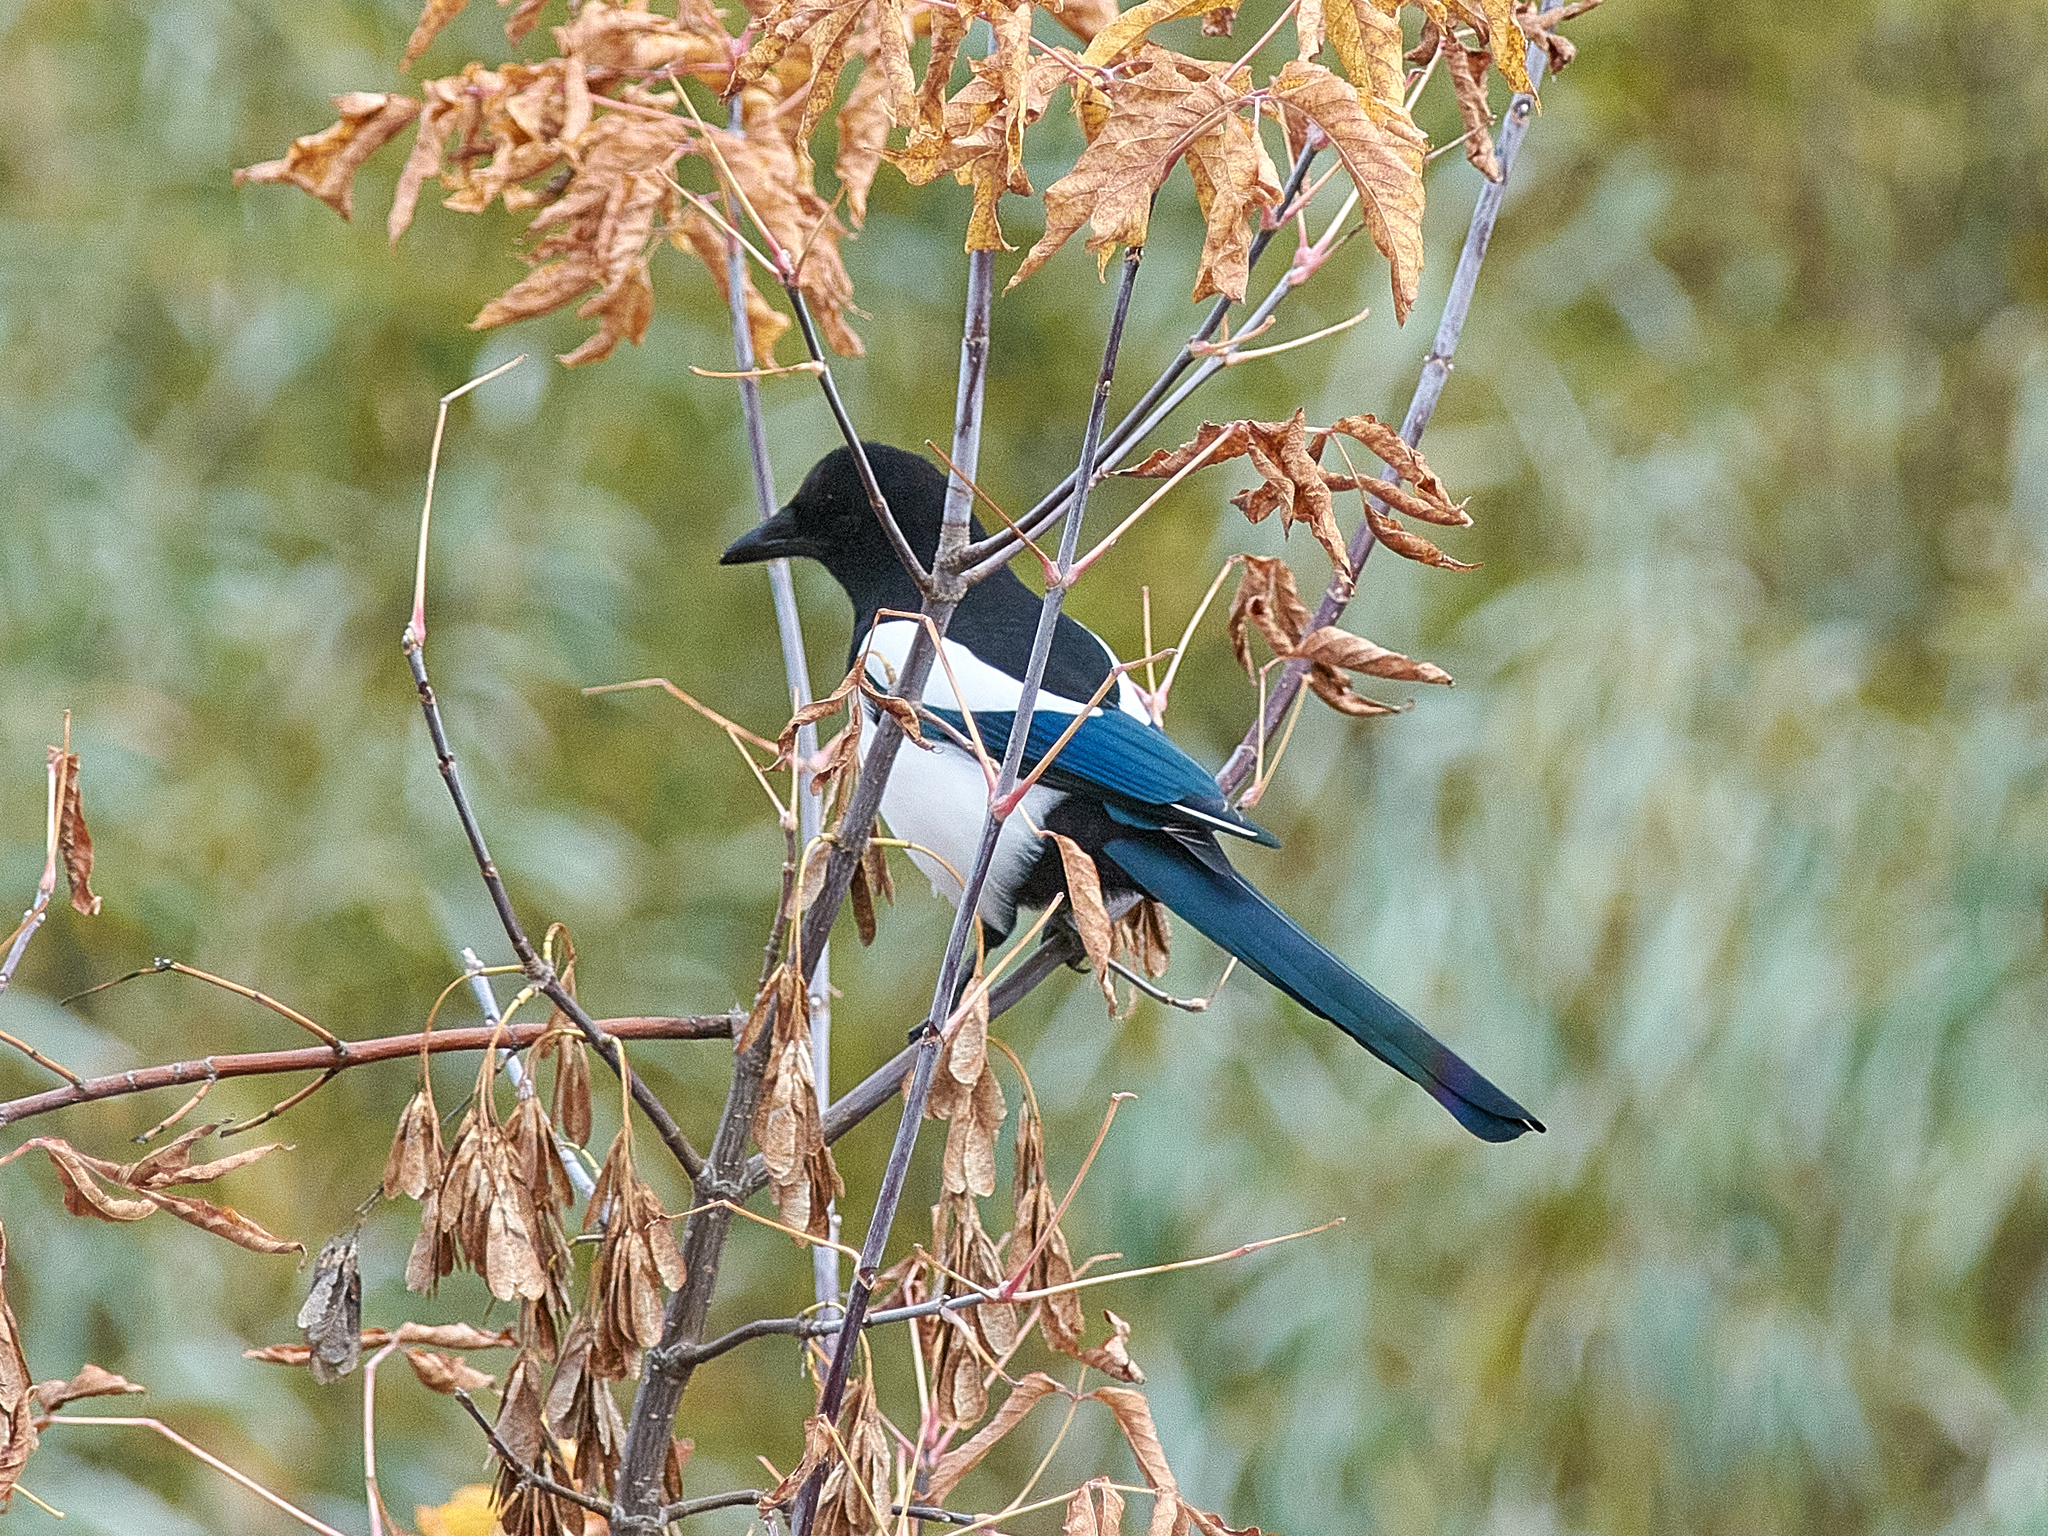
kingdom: Animalia
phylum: Chordata
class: Aves
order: Passeriformes
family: Corvidae
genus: Pica
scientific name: Pica pica
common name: Eurasian magpie
